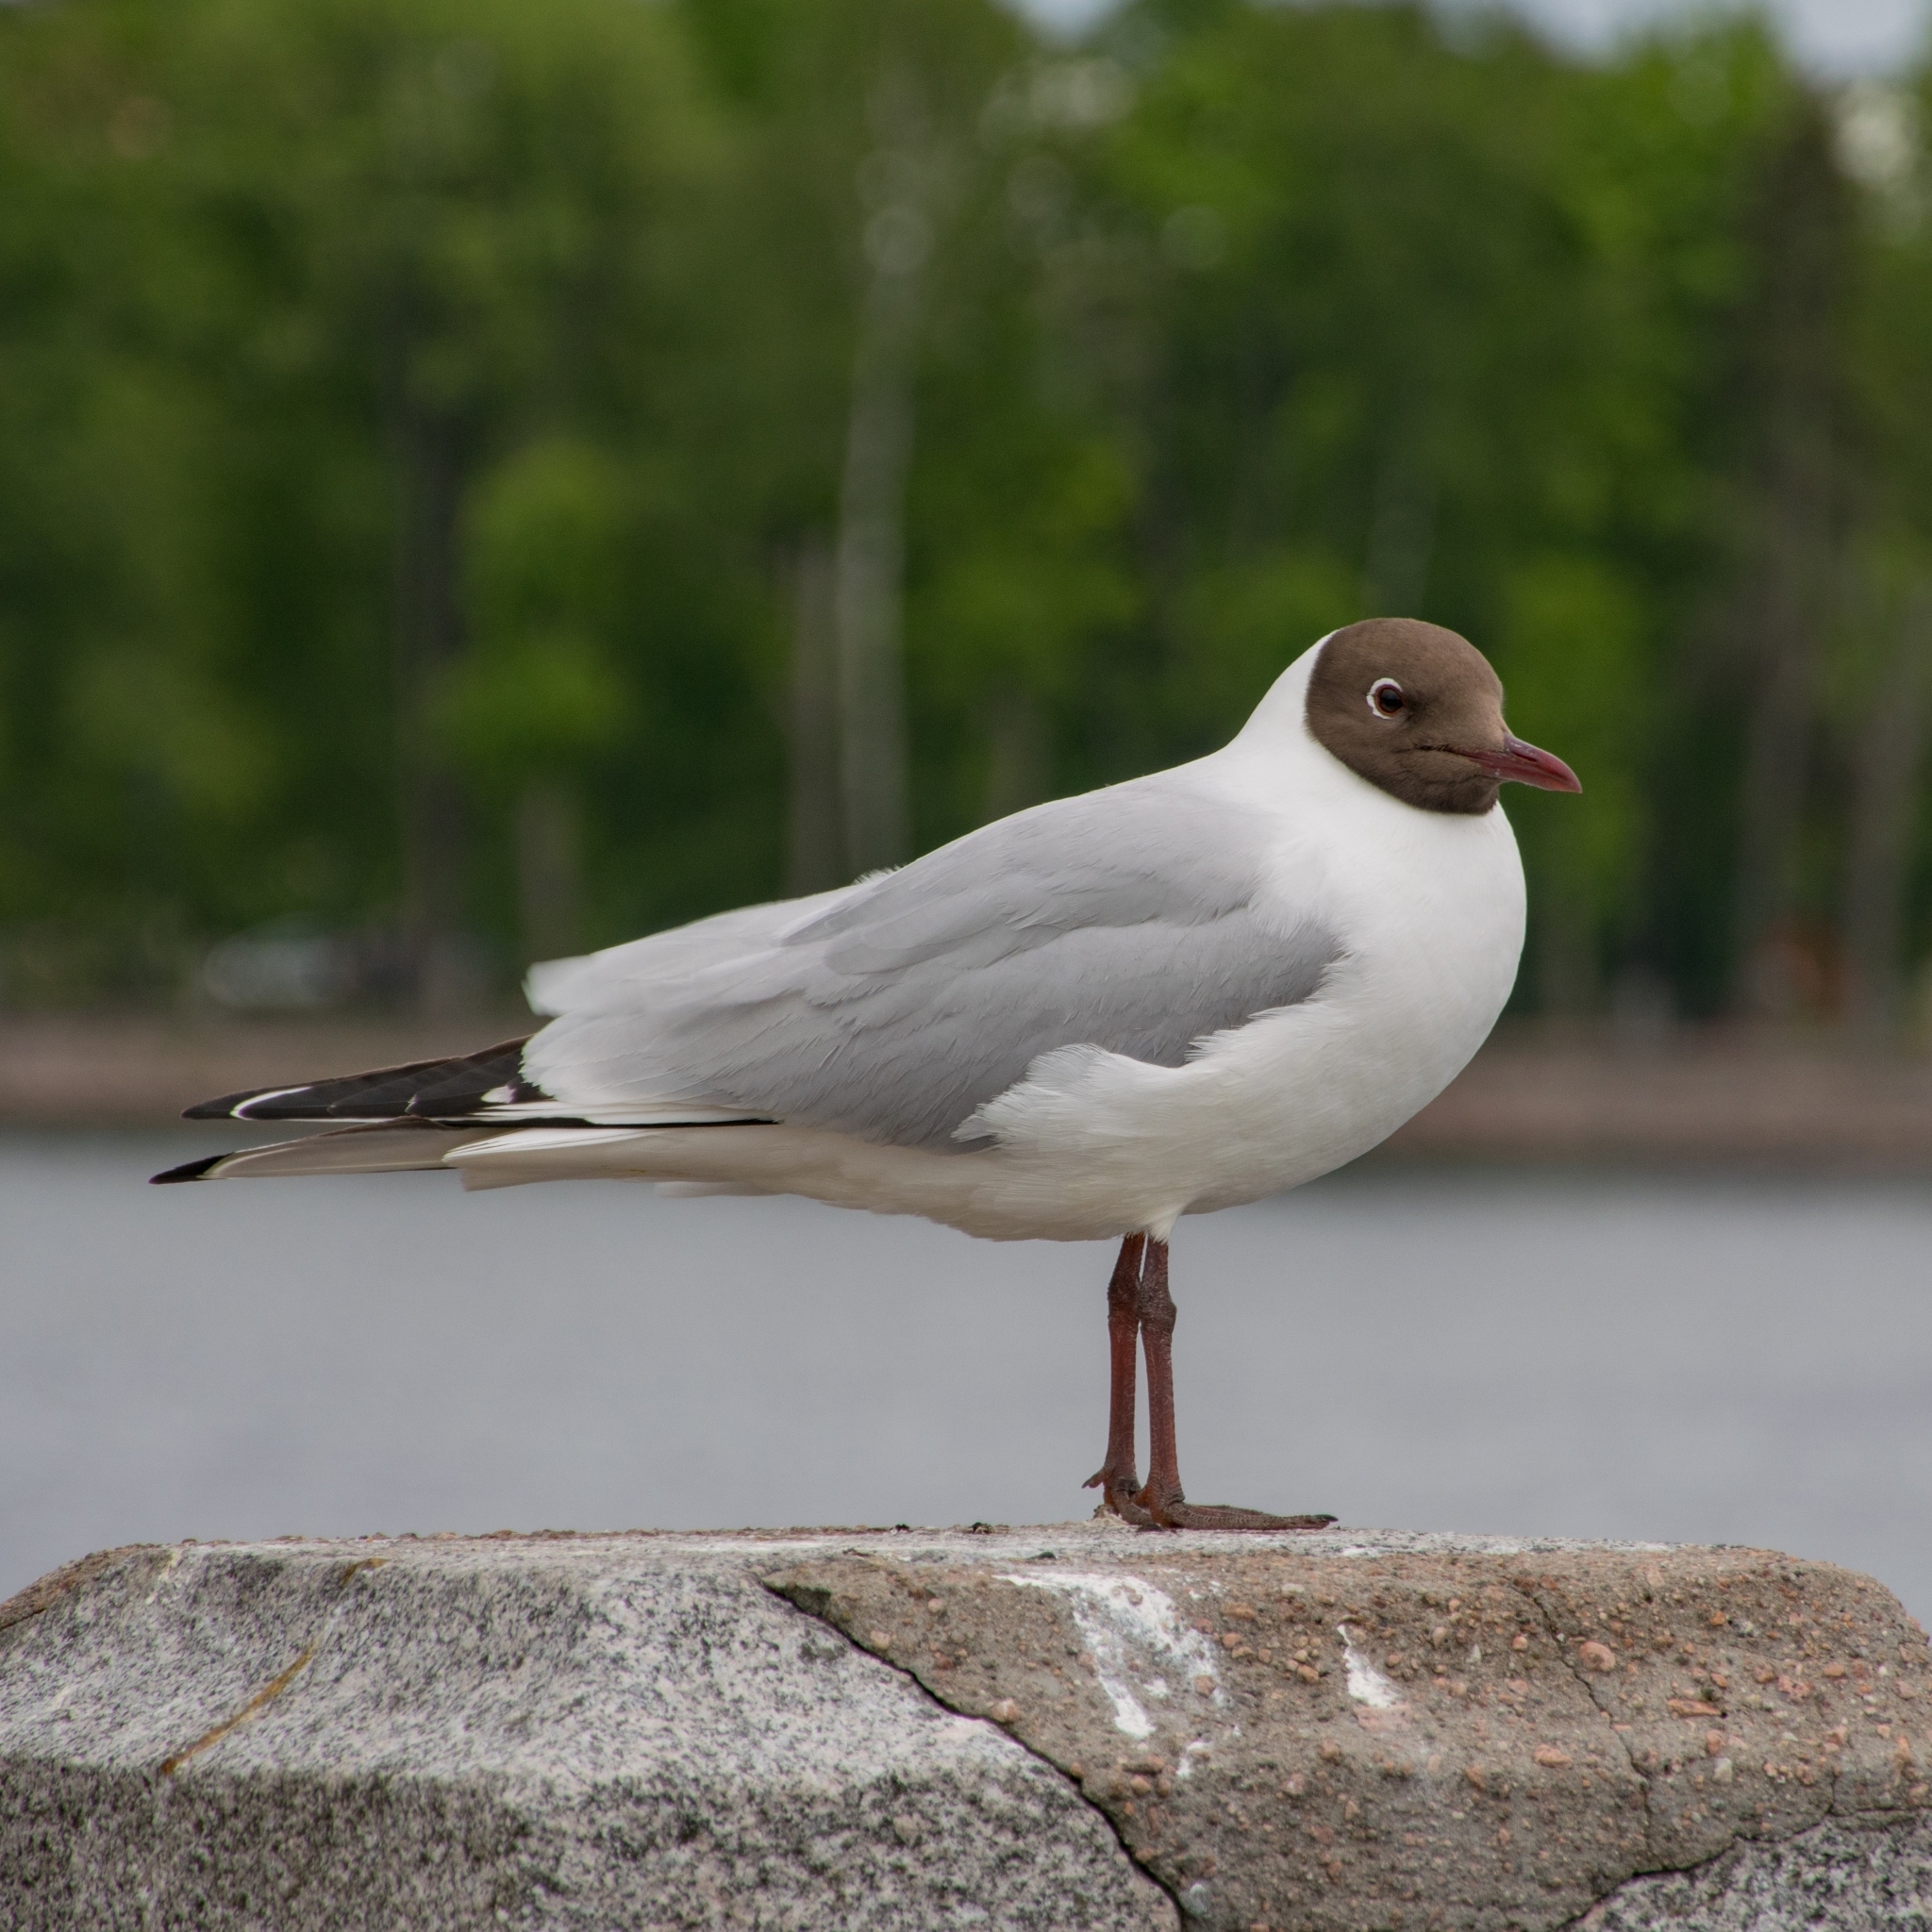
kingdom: Animalia
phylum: Chordata
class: Aves
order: Charadriiformes
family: Laridae
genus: Chroicocephalus
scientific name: Chroicocephalus ridibundus
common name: Black-headed gull
